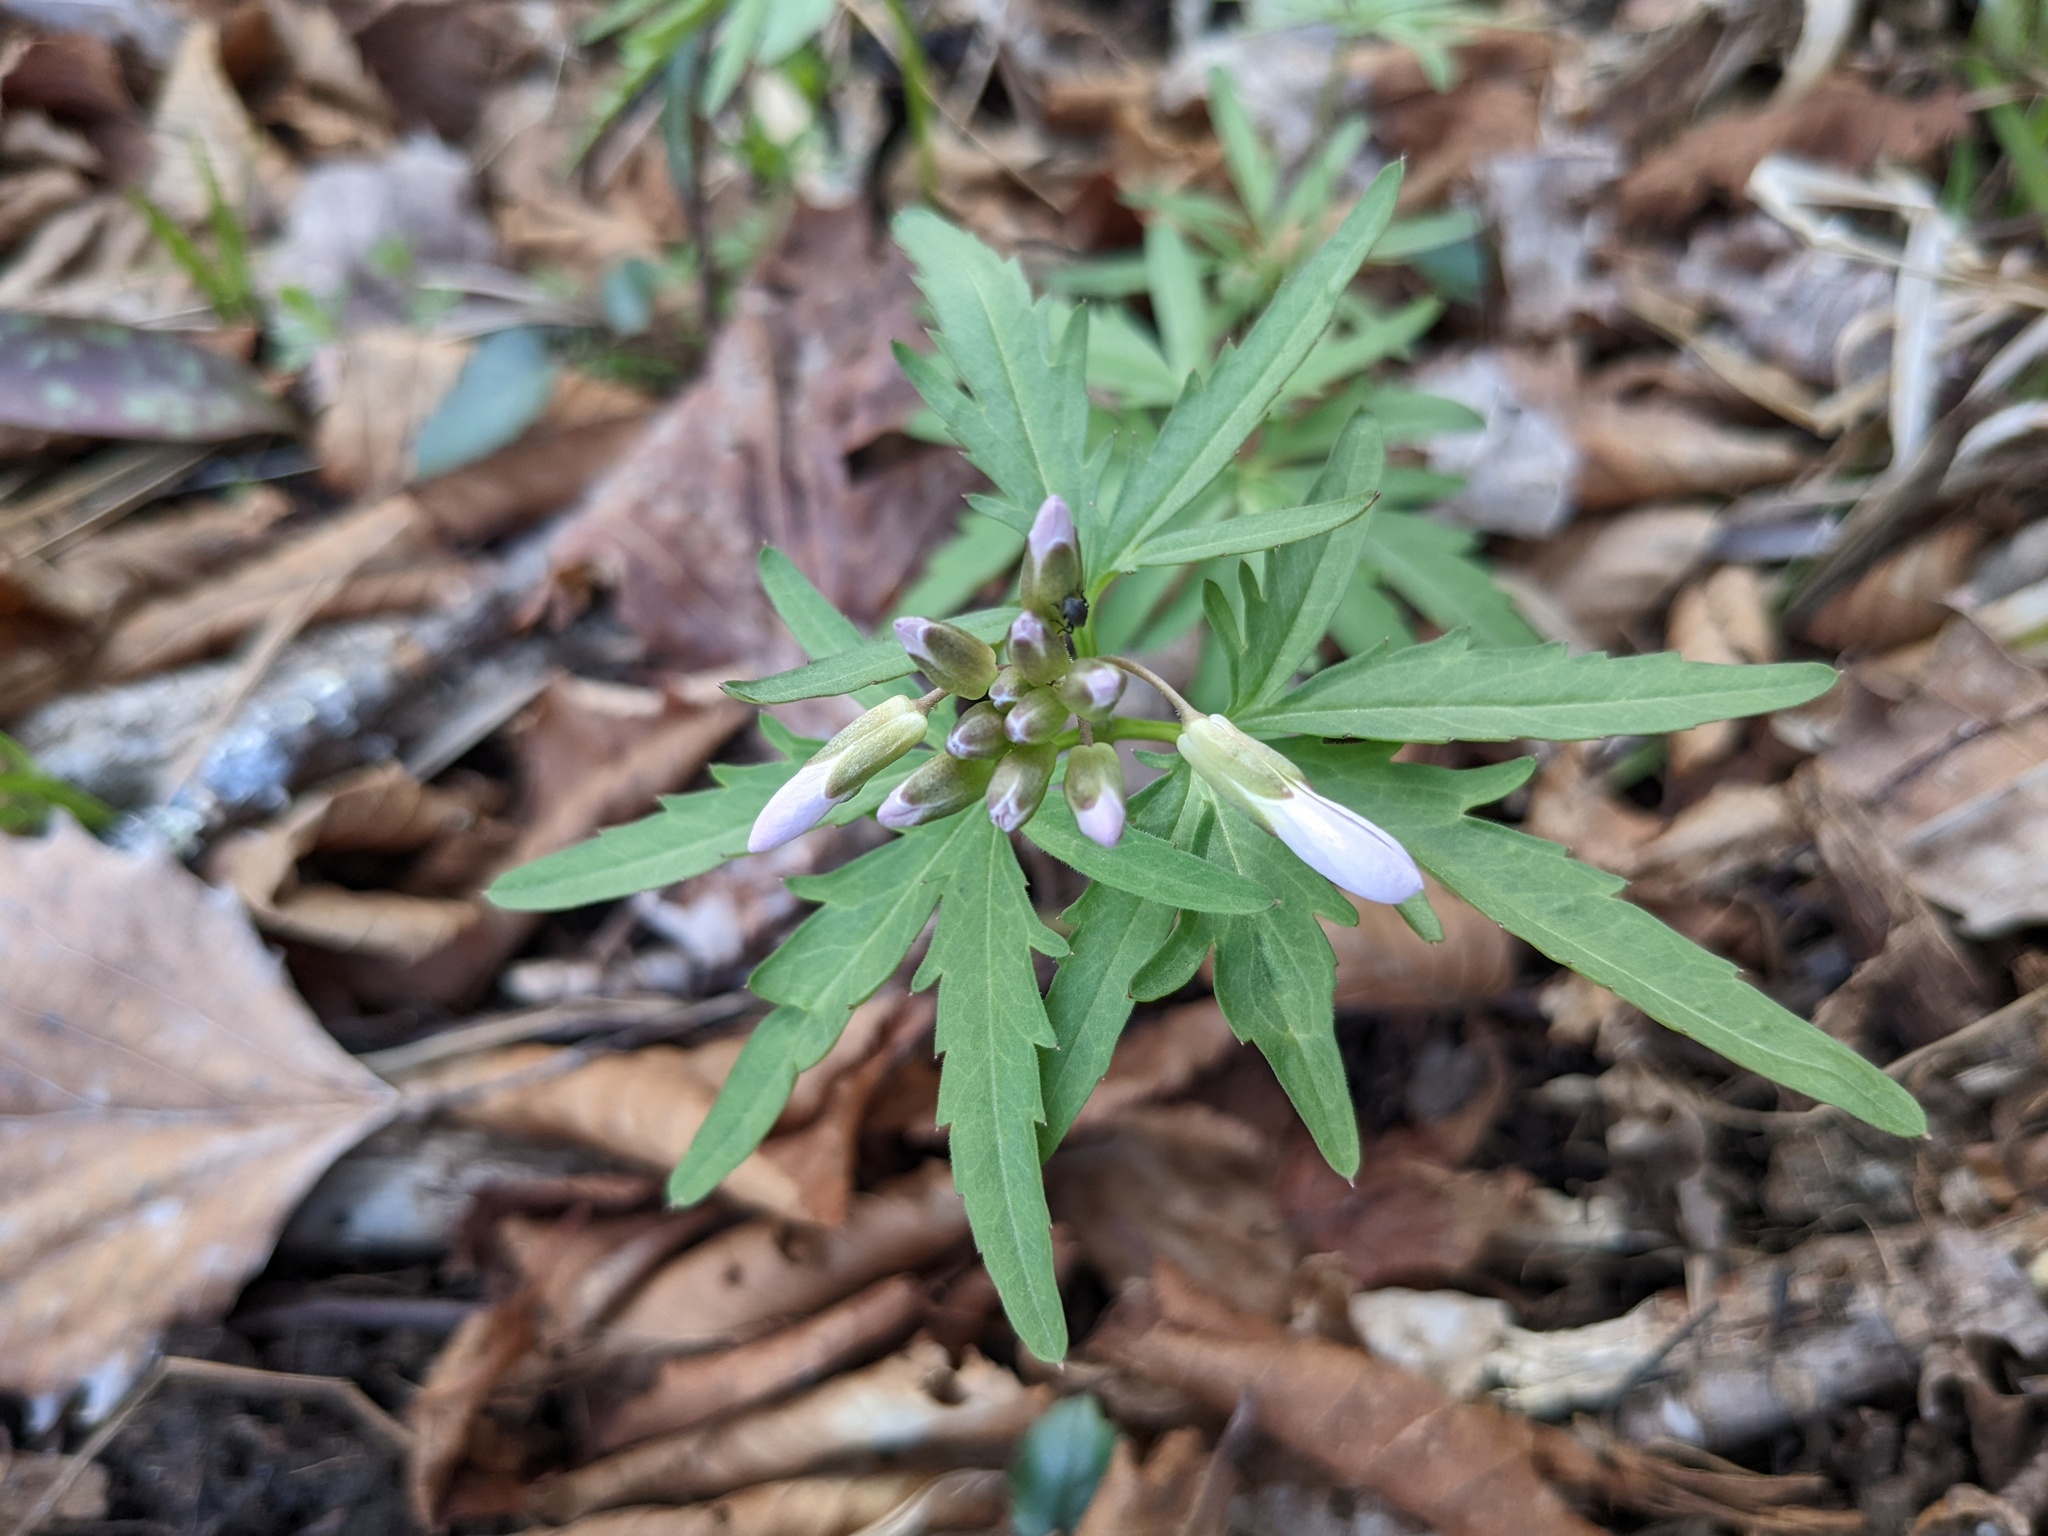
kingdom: Plantae
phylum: Tracheophyta
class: Magnoliopsida
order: Brassicales
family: Brassicaceae
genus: Cardamine
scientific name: Cardamine concatenata
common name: Cut-leaf toothcup
